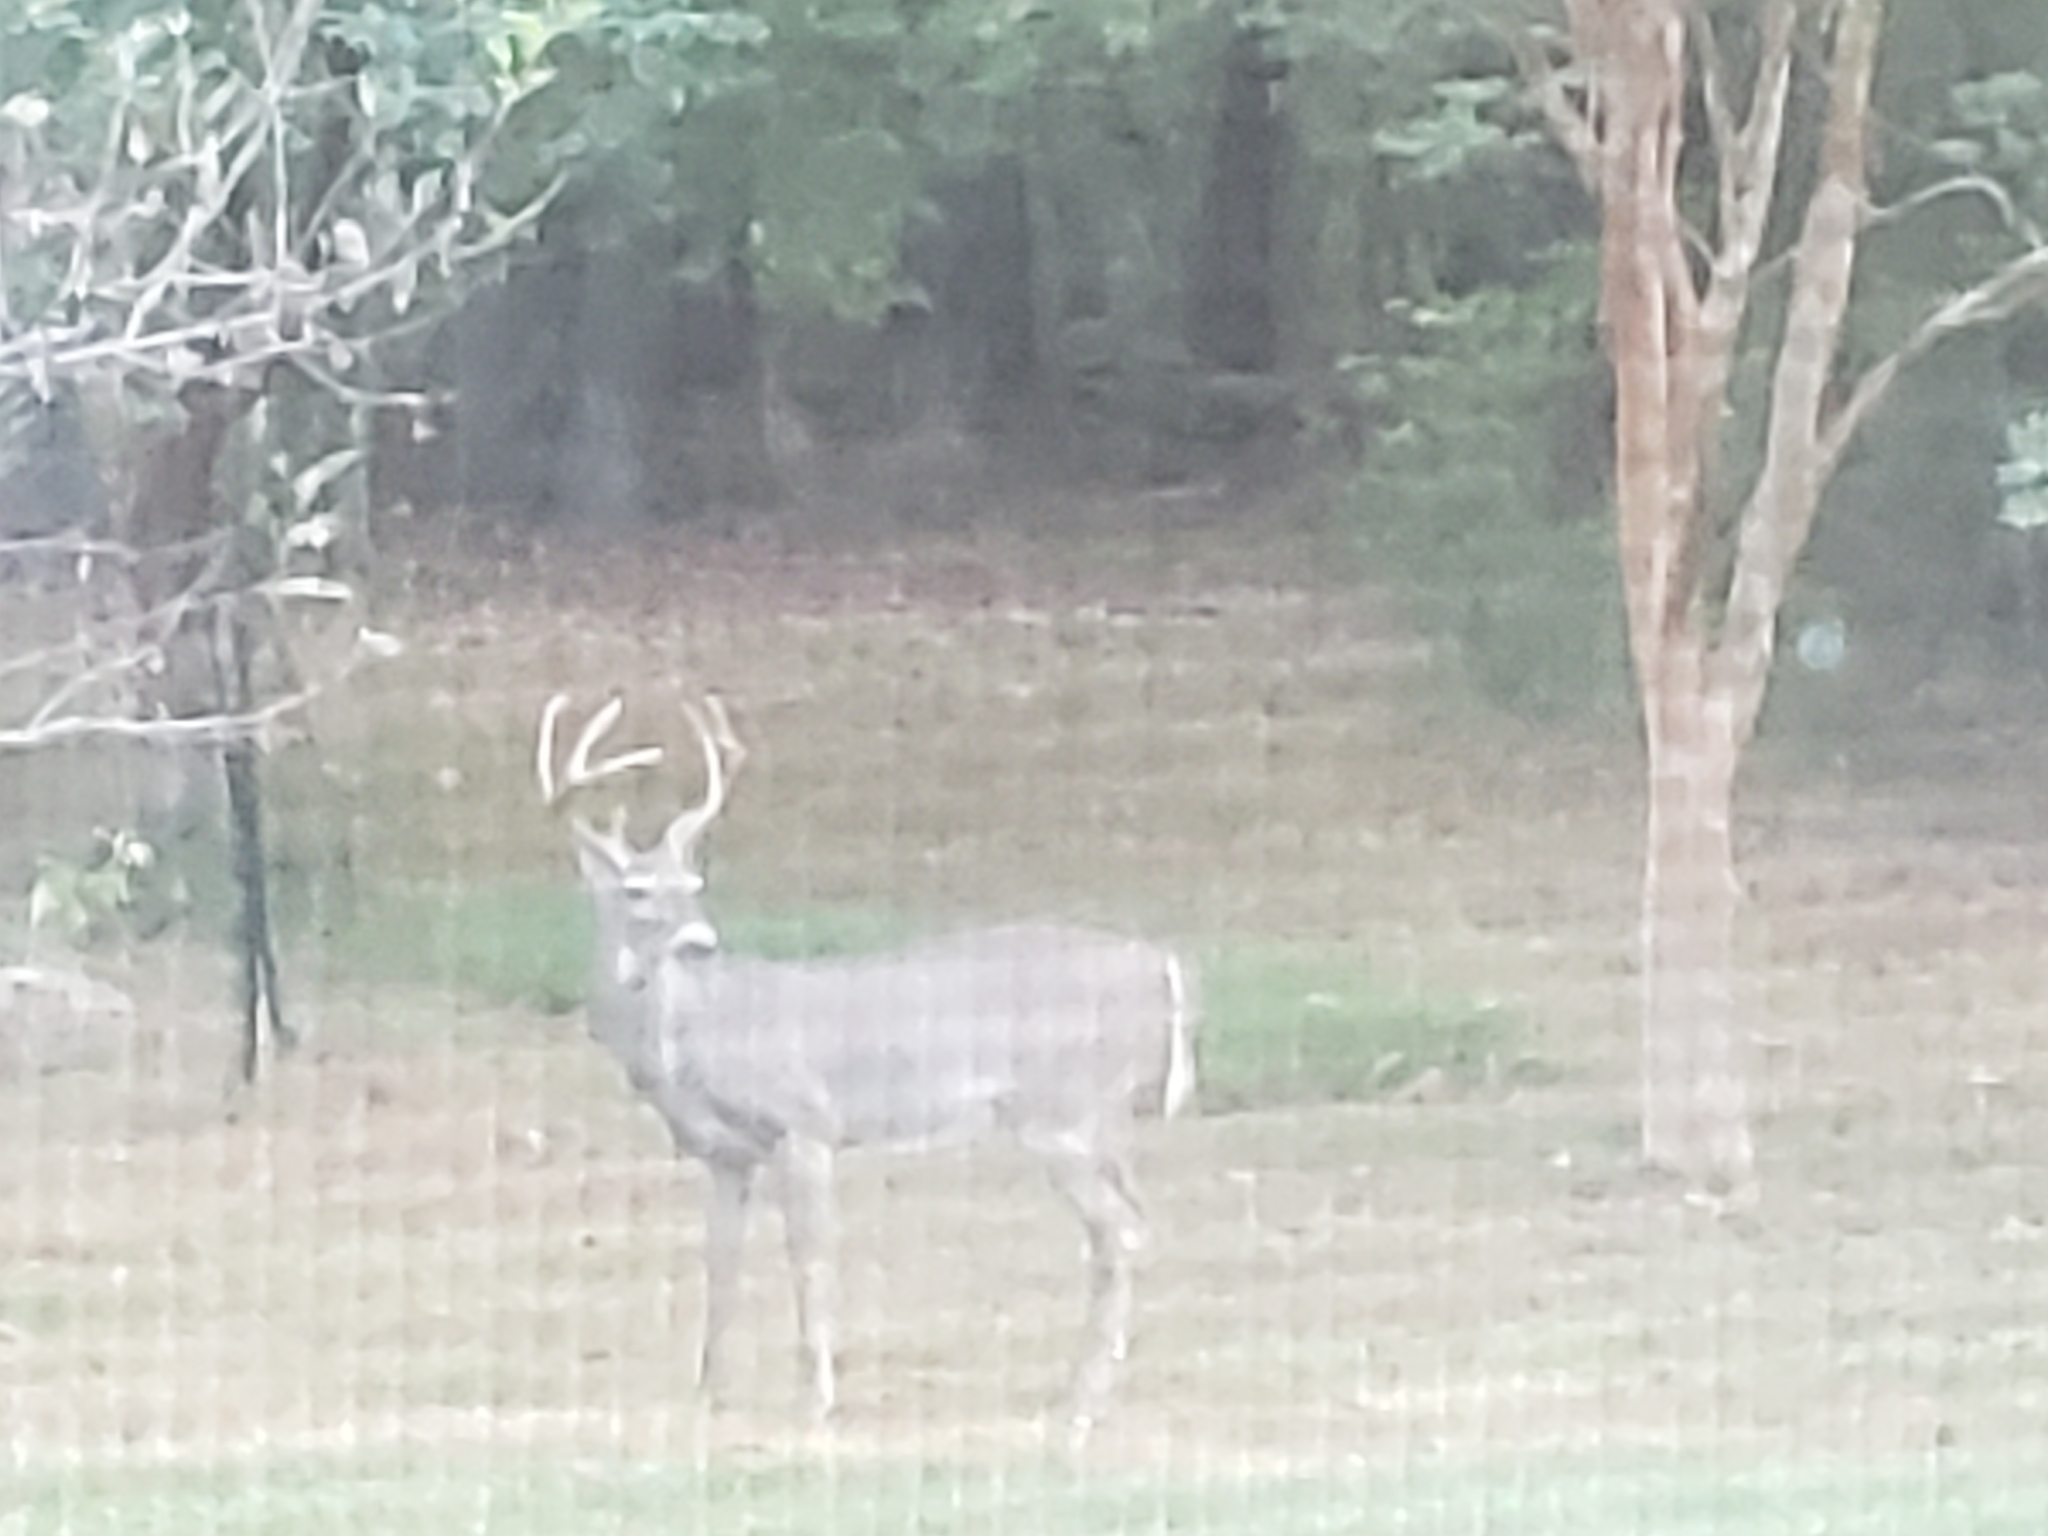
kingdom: Animalia
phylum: Chordata
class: Mammalia
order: Artiodactyla
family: Cervidae
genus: Odocoileus
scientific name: Odocoileus virginianus
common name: White-tailed deer
